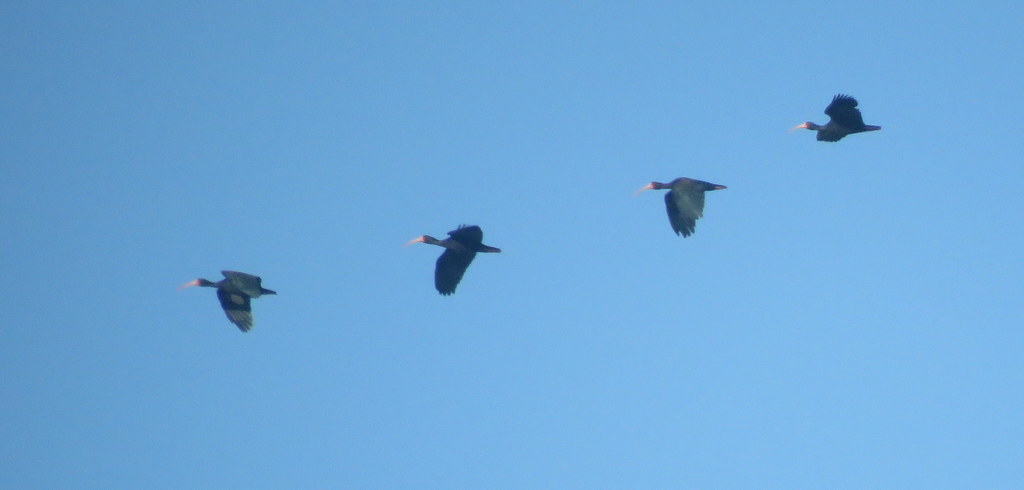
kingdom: Animalia
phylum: Chordata
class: Aves
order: Pelecaniformes
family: Threskiornithidae
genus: Phimosus
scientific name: Phimosus infuscatus
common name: Bare-faced ibis
